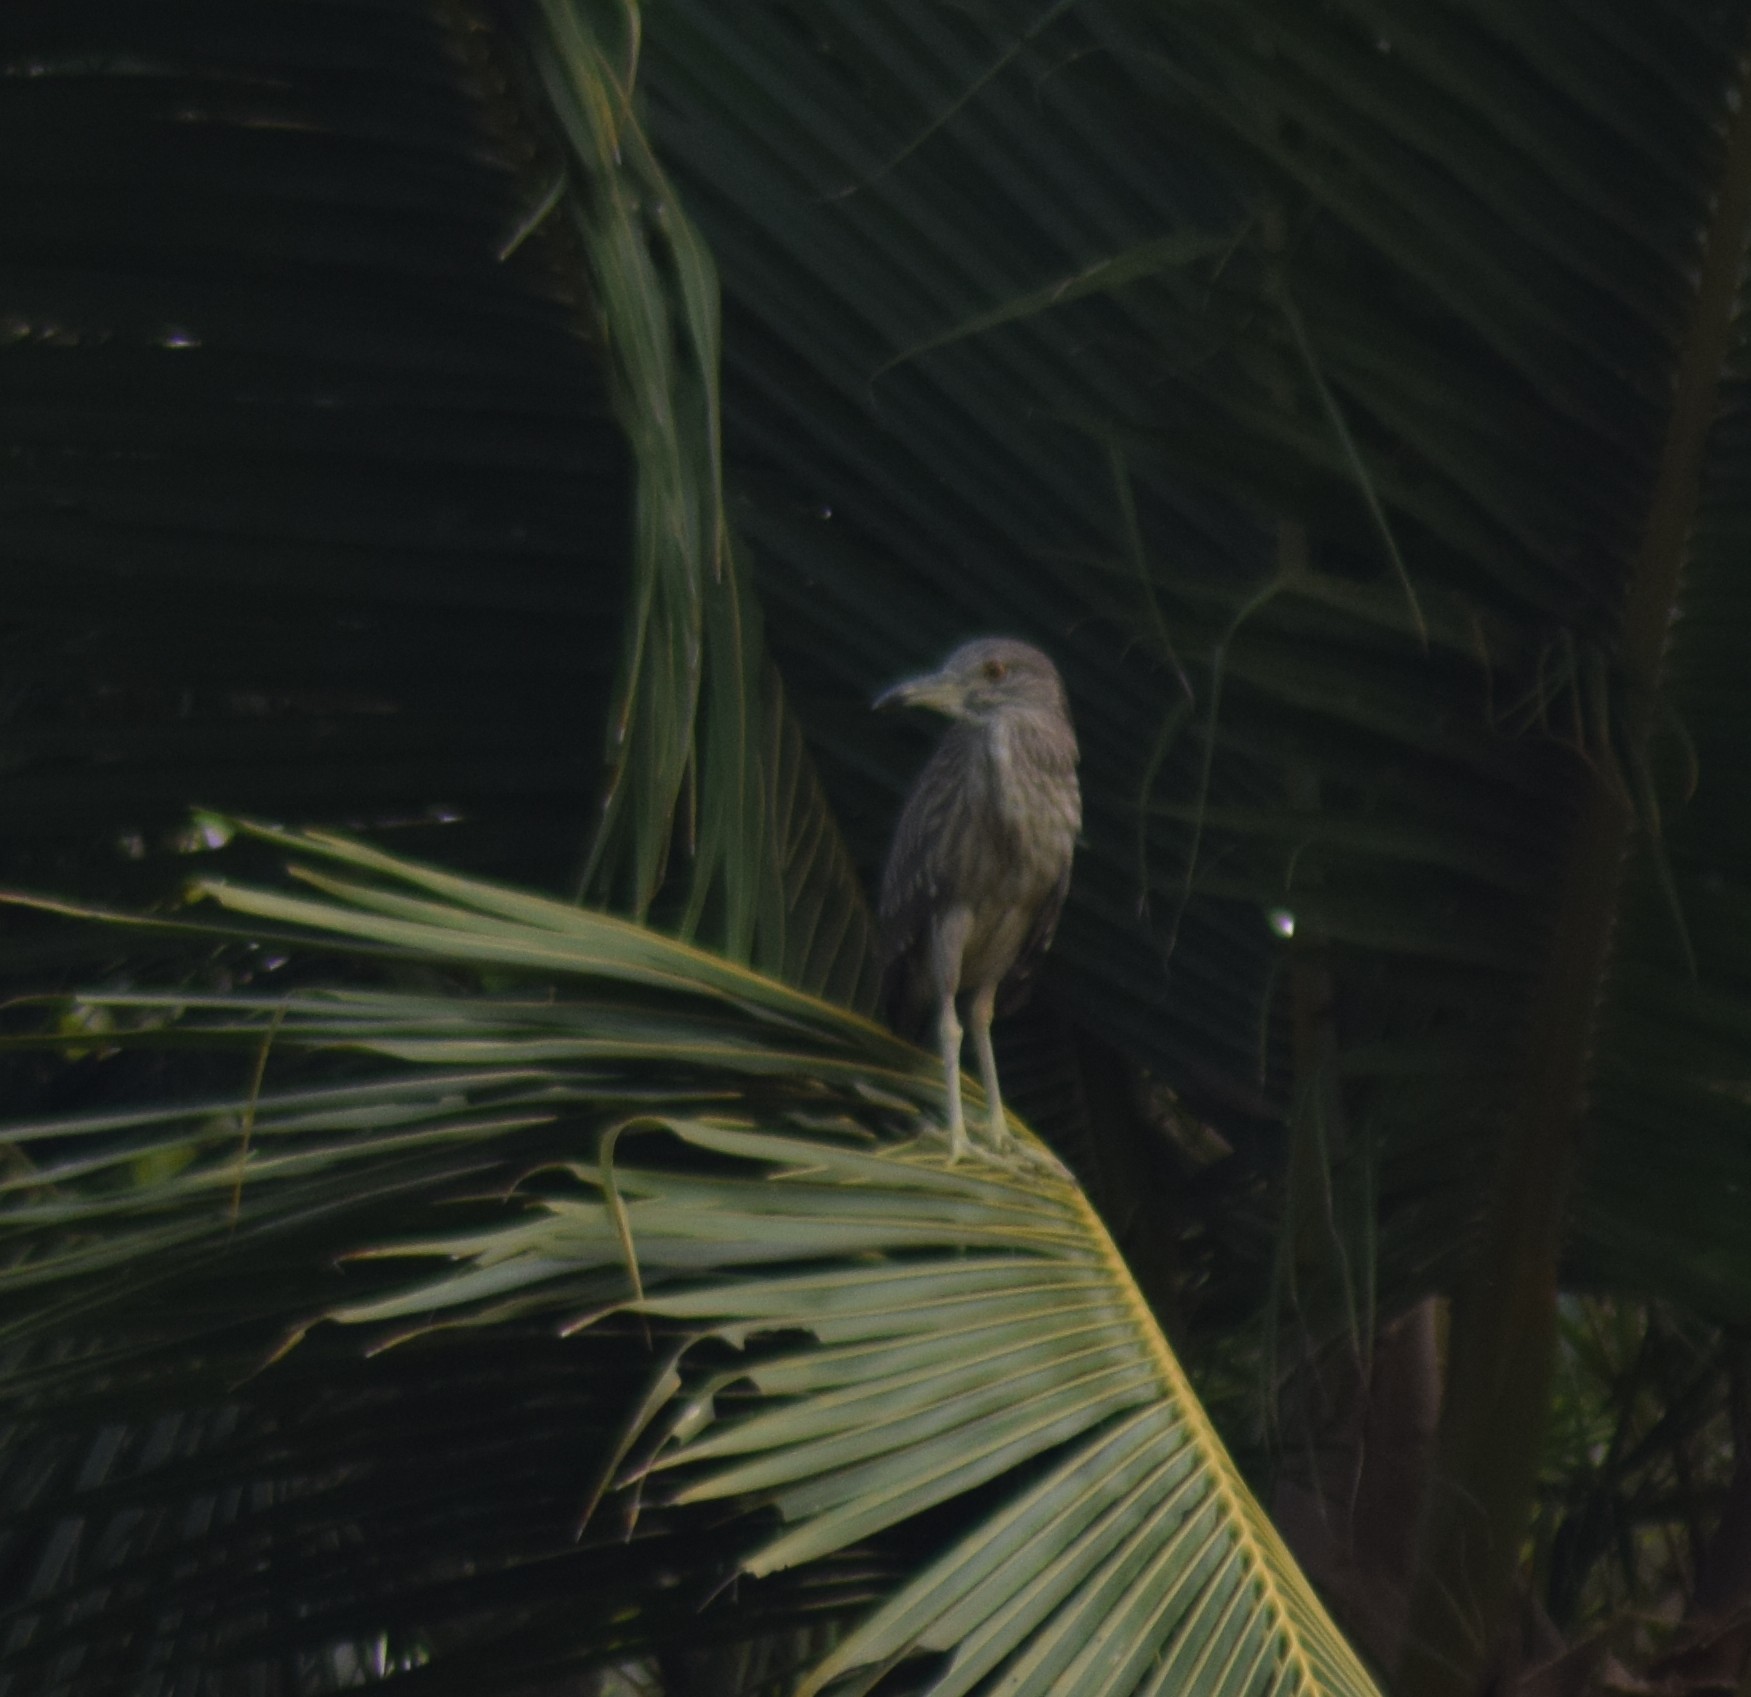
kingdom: Animalia
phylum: Chordata
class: Aves
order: Pelecaniformes
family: Ardeidae
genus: Nycticorax
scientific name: Nycticorax nycticorax
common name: Black-crowned night heron
